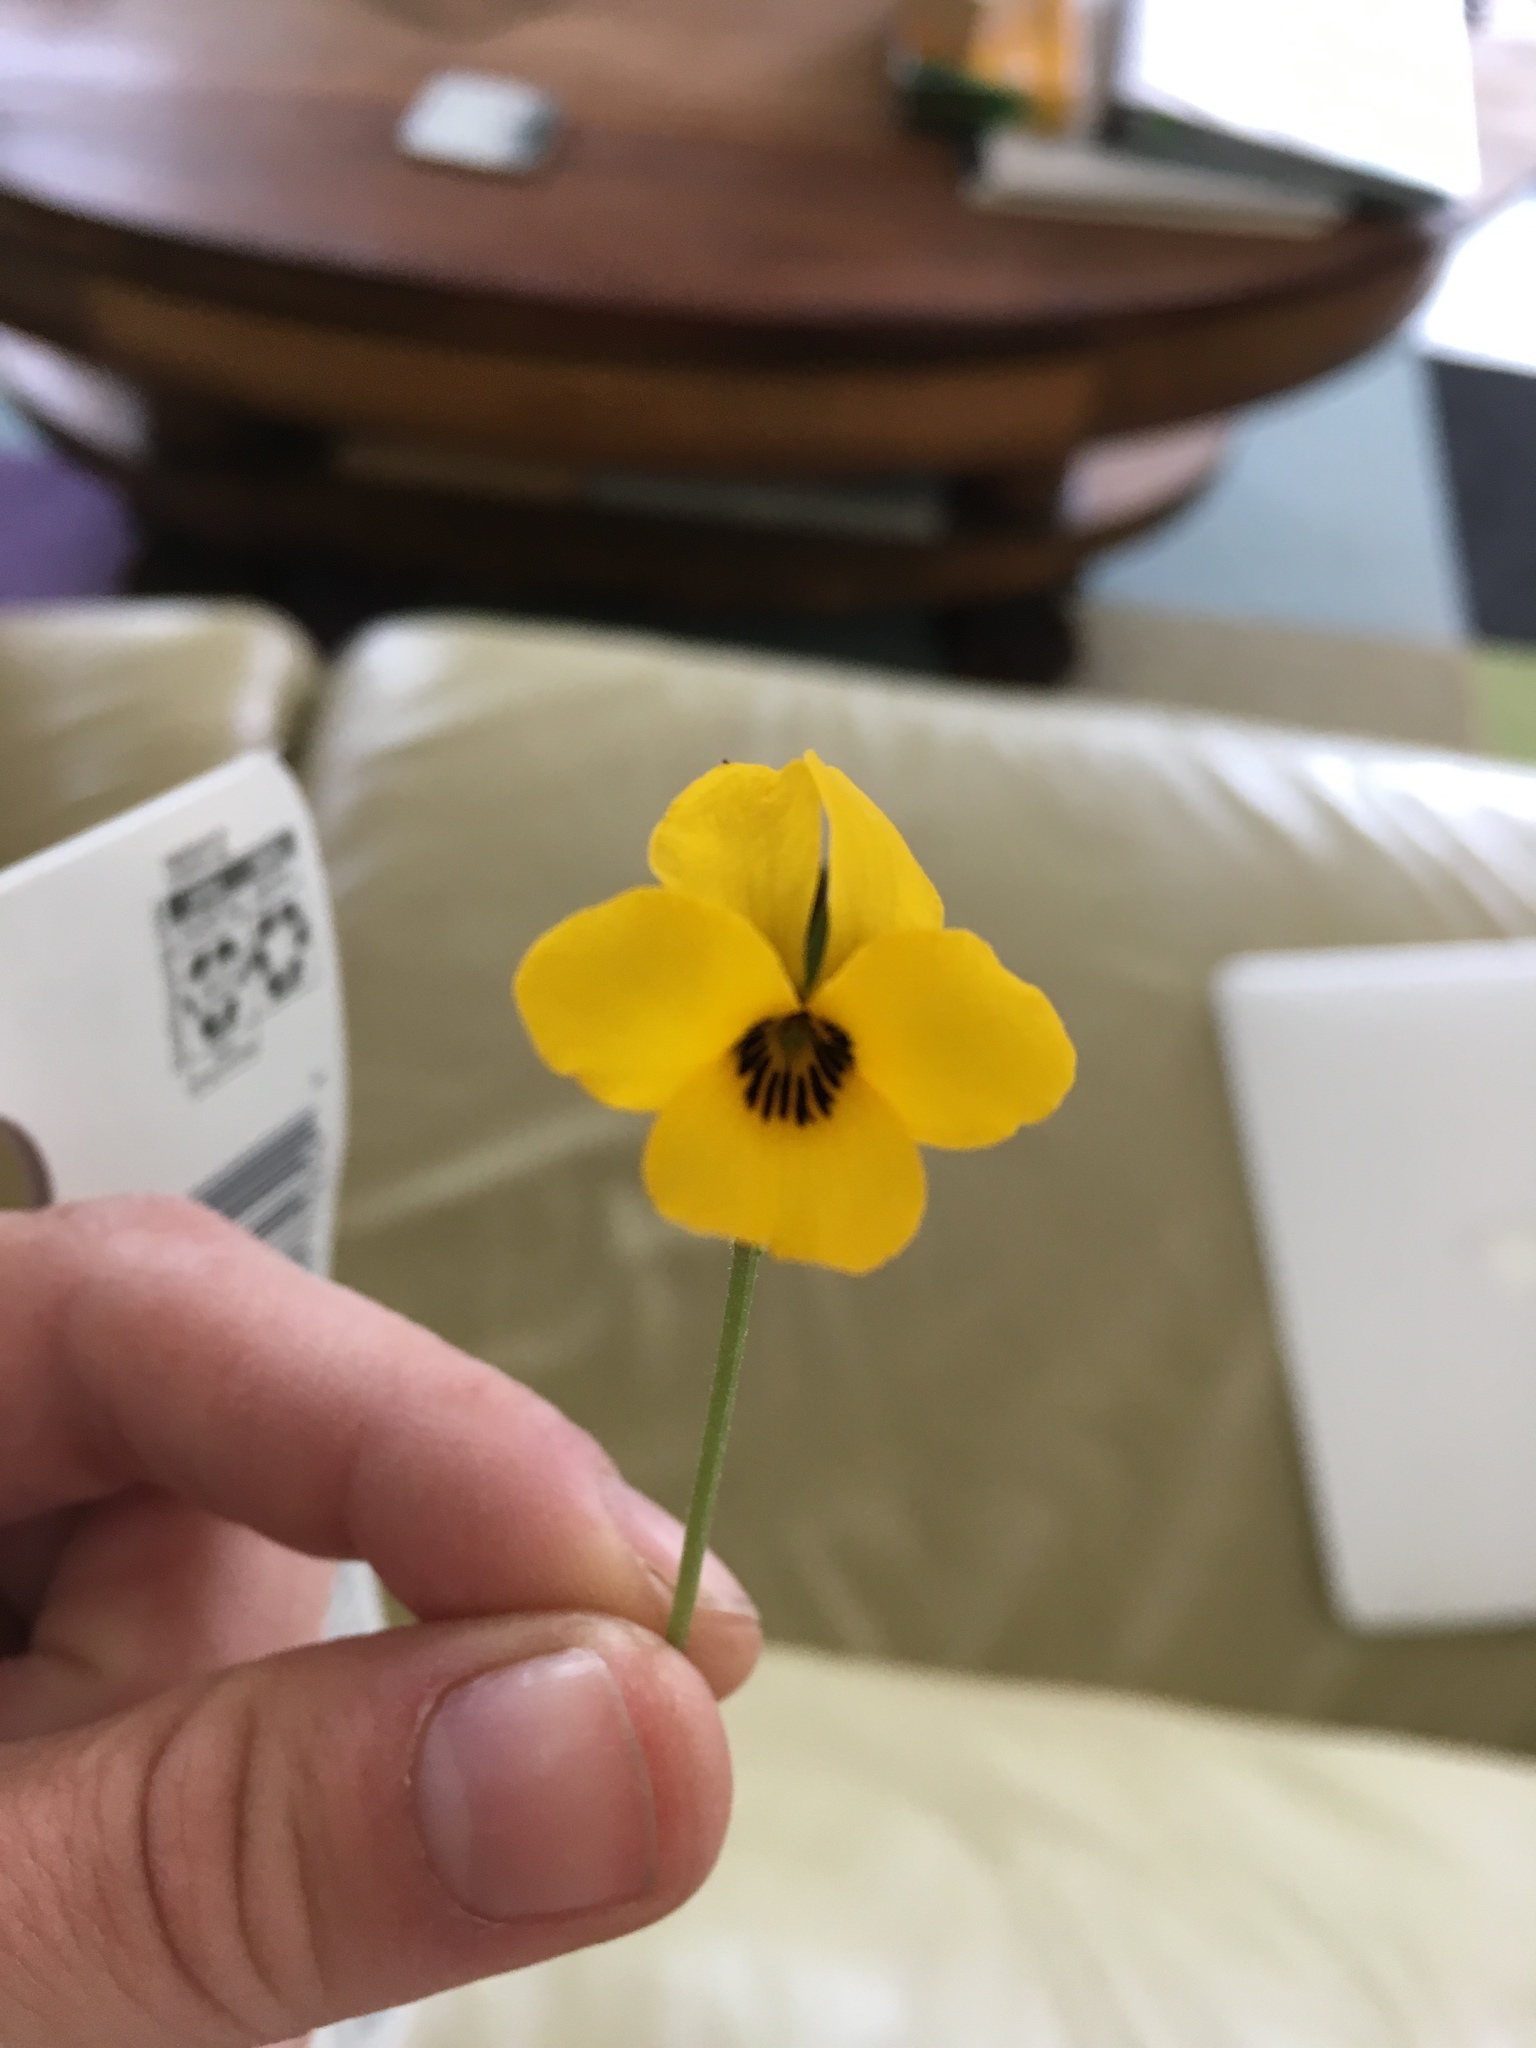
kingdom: Plantae
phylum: Tracheophyta
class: Magnoliopsida
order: Malpighiales
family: Violaceae
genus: Viola
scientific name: Viola pedunculata
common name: California golden violet
